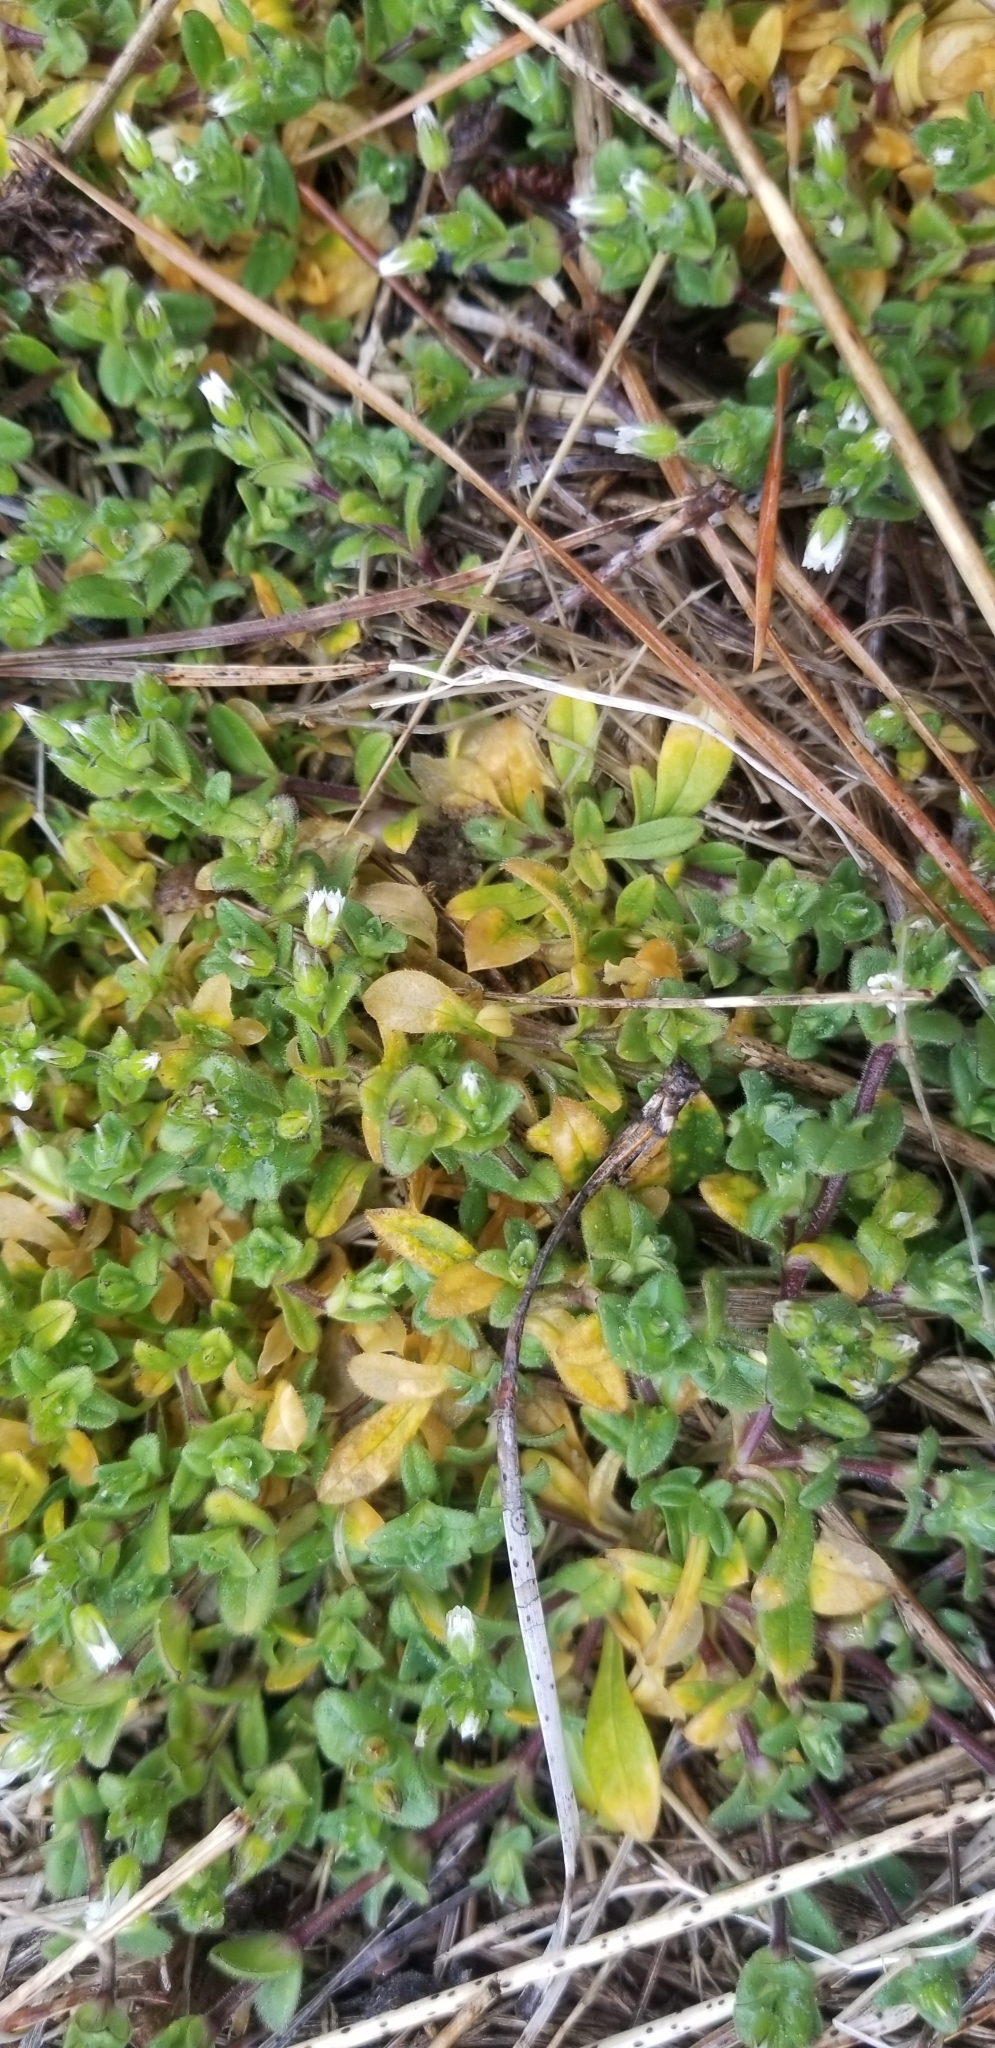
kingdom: Plantae
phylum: Tracheophyta
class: Magnoliopsida
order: Caryophyllales
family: Caryophyllaceae
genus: Cerastium
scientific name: Cerastium fontanum
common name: Common mouse-ear
